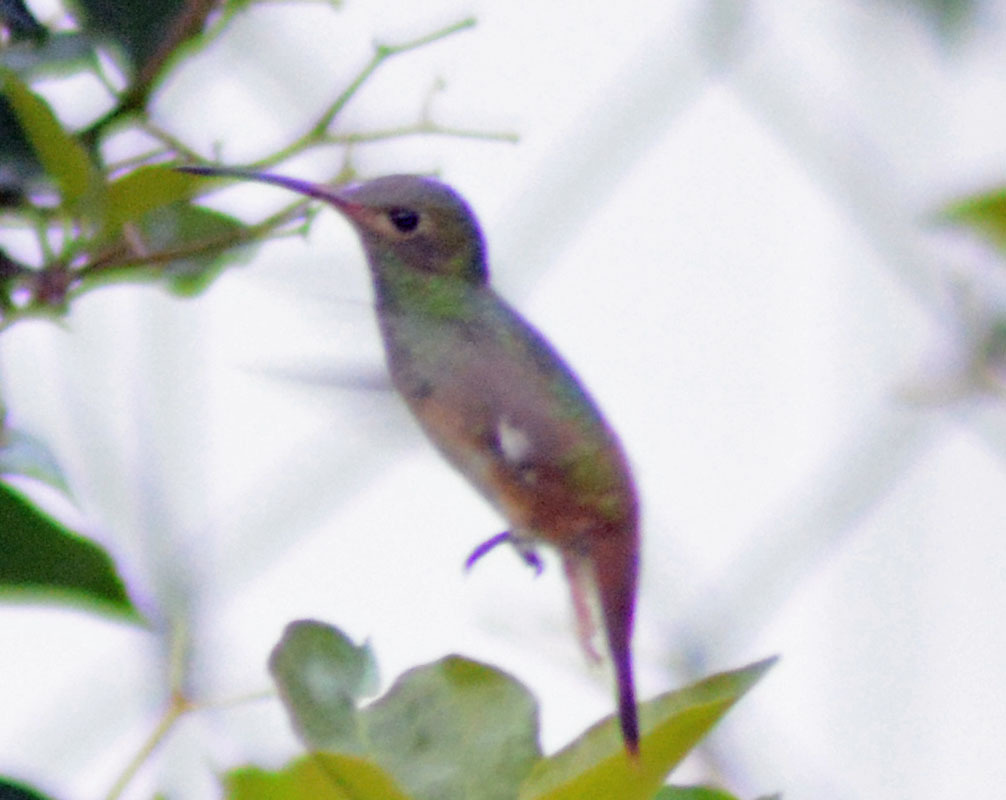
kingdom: Animalia
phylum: Chordata
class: Aves
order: Apodiformes
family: Trochilidae
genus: Amazilia
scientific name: Amazilia yucatanensis
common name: Buff-bellied hummingbird
